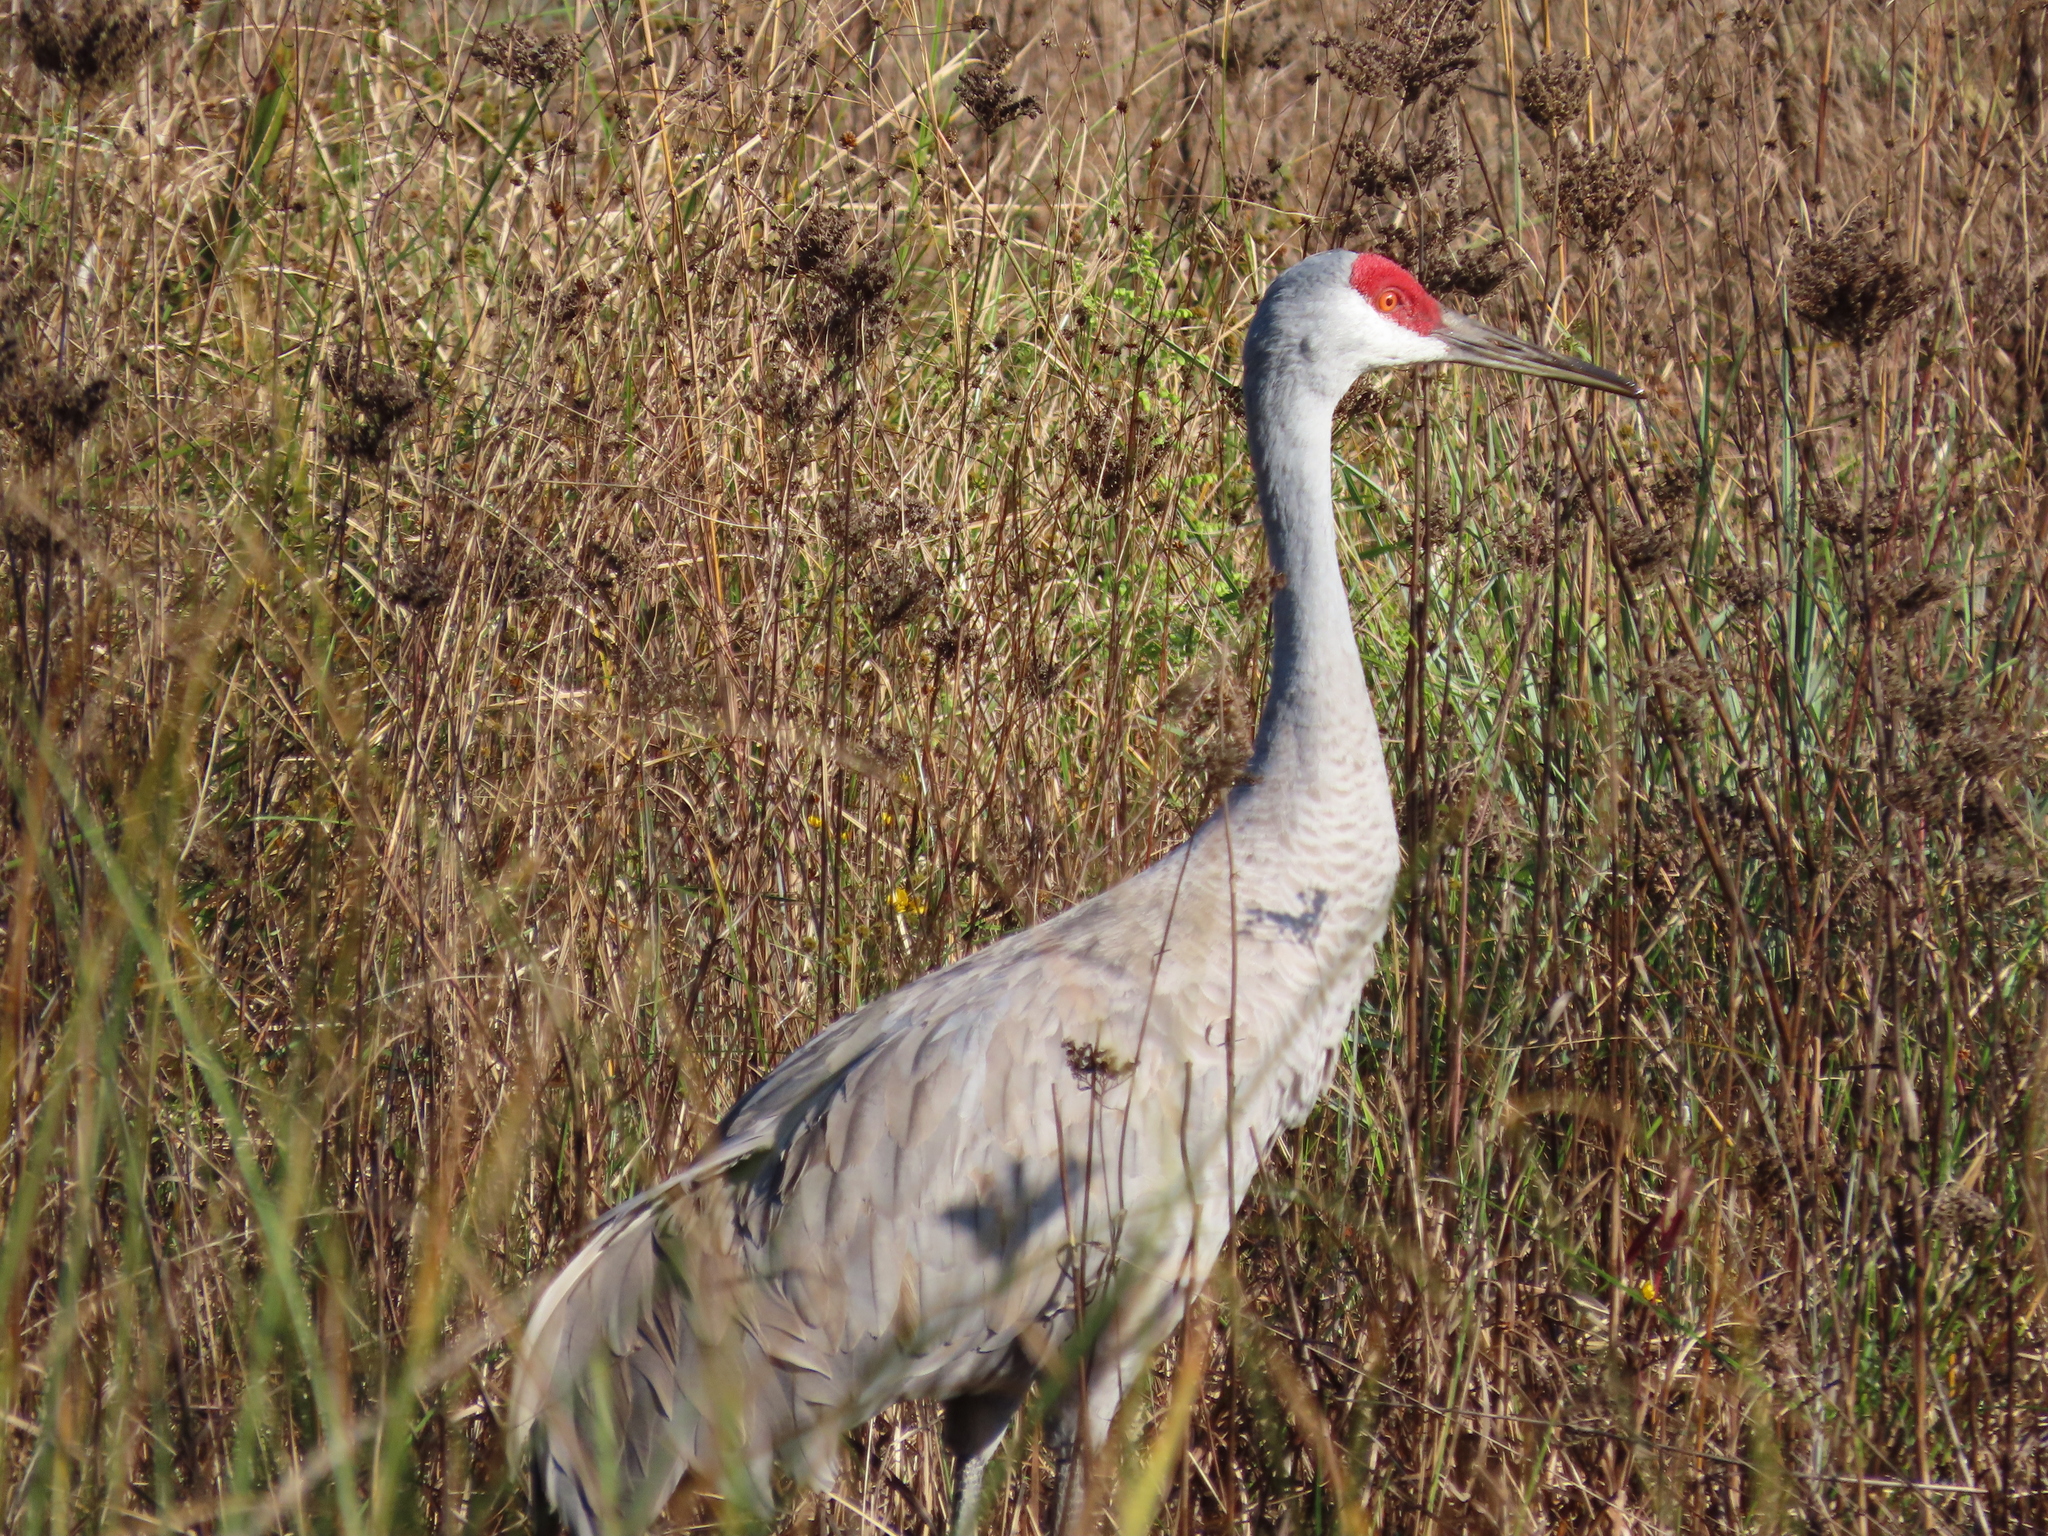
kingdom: Animalia
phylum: Chordata
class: Aves
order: Gruiformes
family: Gruidae
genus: Grus
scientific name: Grus canadensis
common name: Sandhill crane
